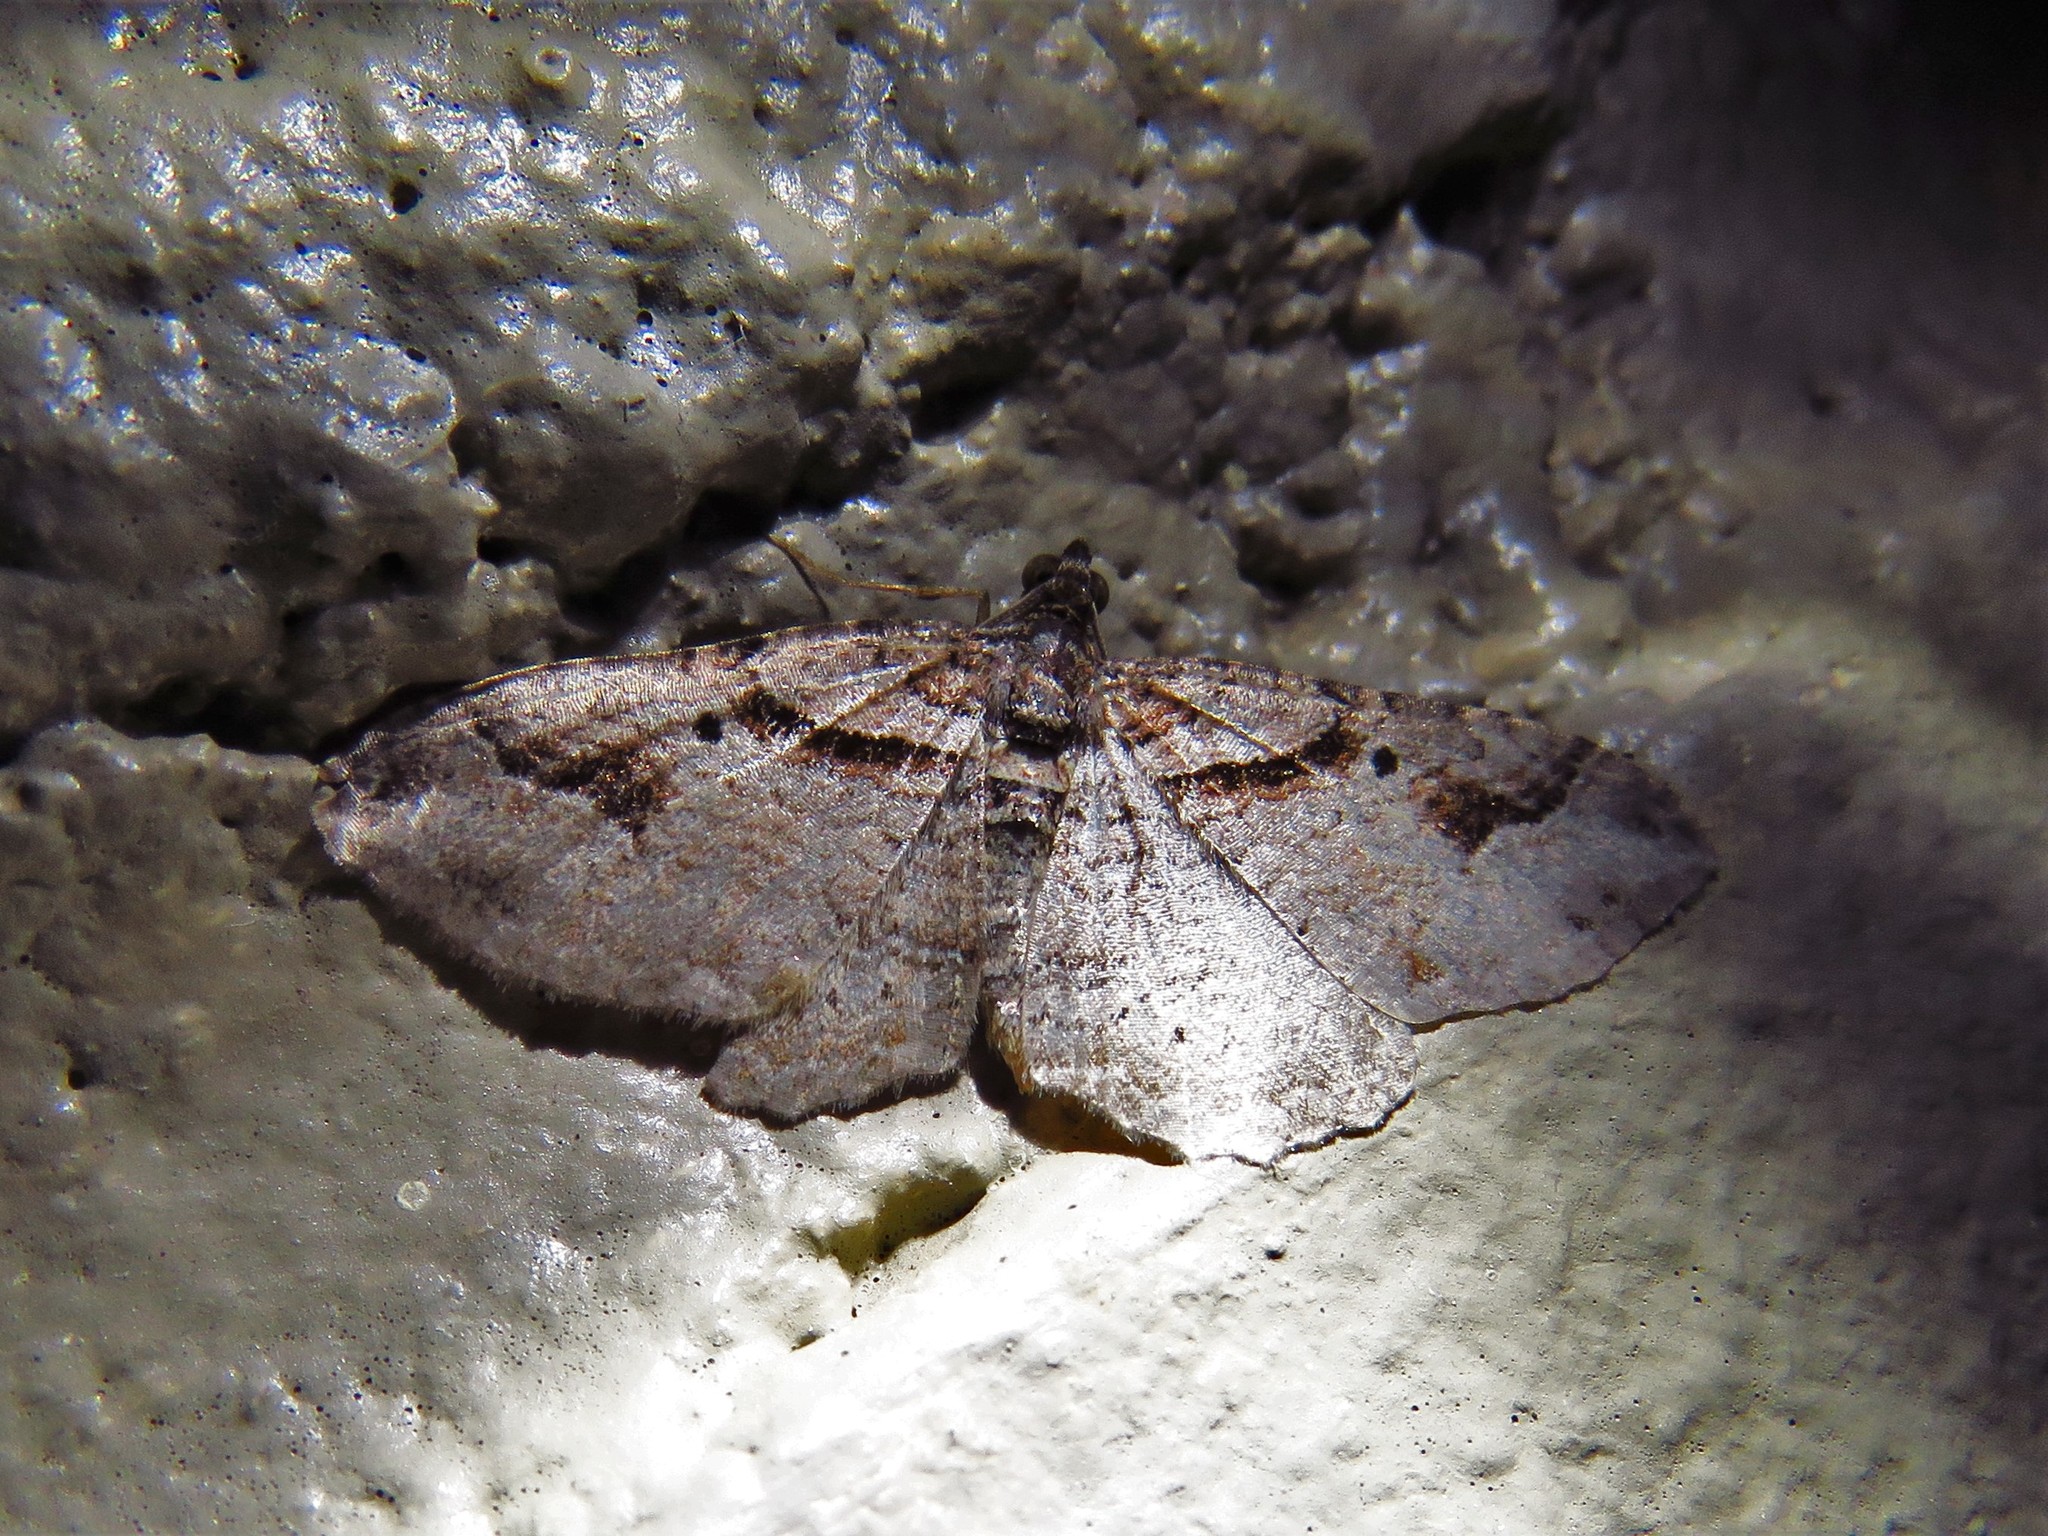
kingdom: Animalia
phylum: Arthropoda
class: Insecta
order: Lepidoptera
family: Geometridae
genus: Costaconvexa
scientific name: Costaconvexa centrostrigaria
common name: Bent-line carpet
